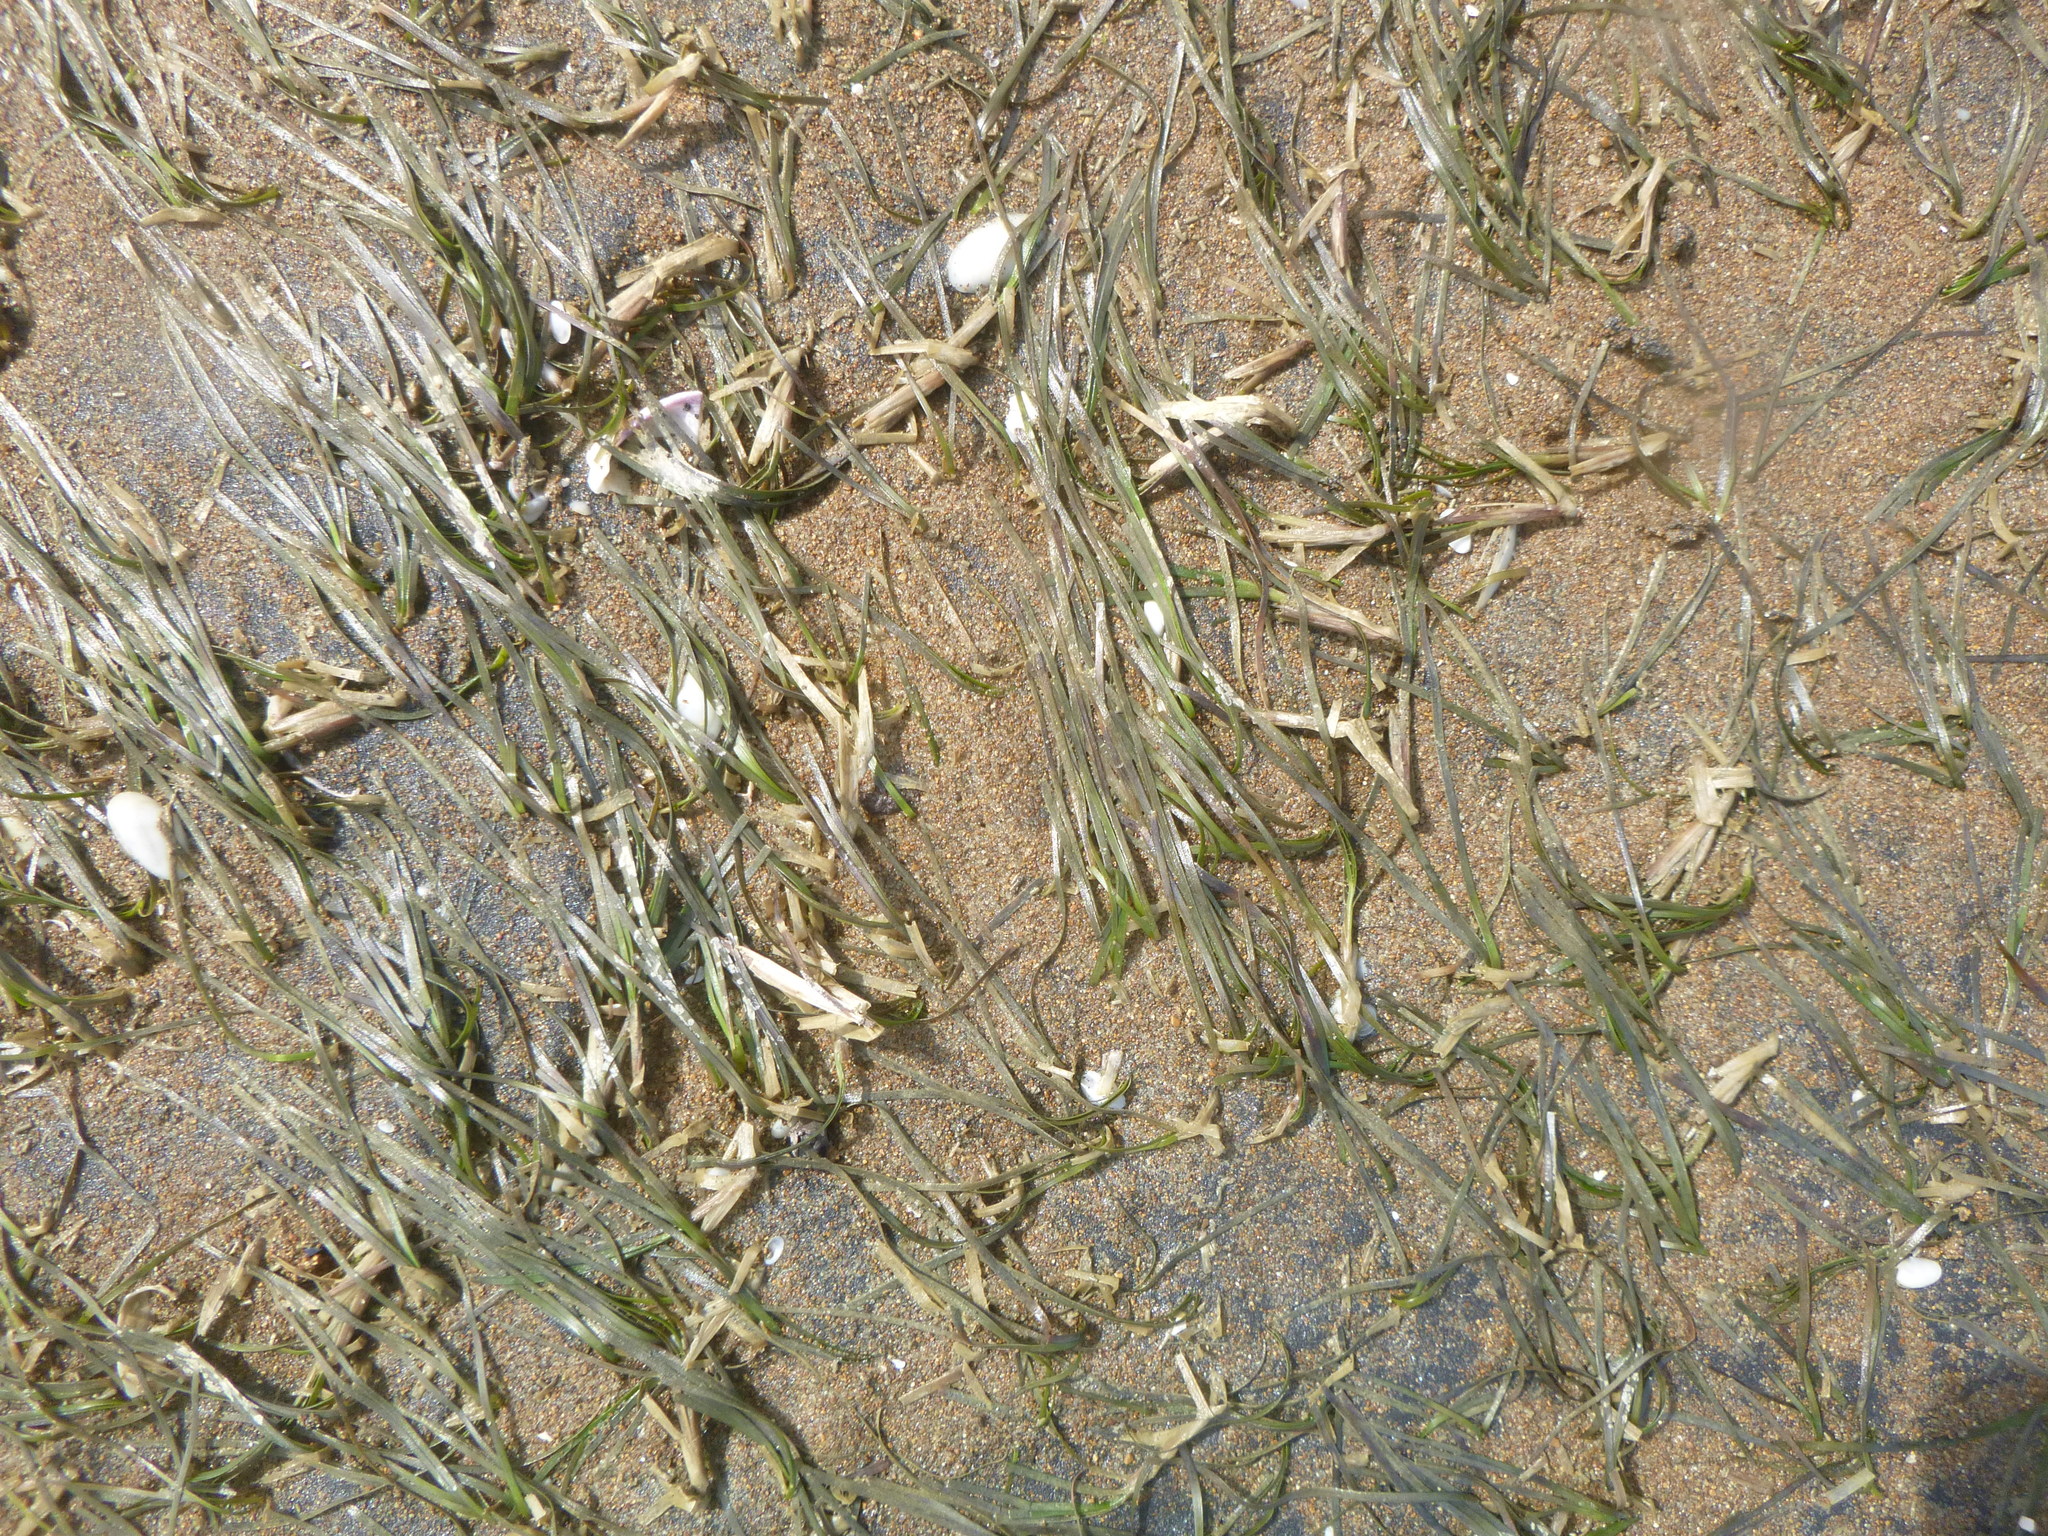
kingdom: Plantae
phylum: Tracheophyta
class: Liliopsida
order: Alismatales
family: Zosteraceae
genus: Zostera
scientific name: Zostera novazelandica
